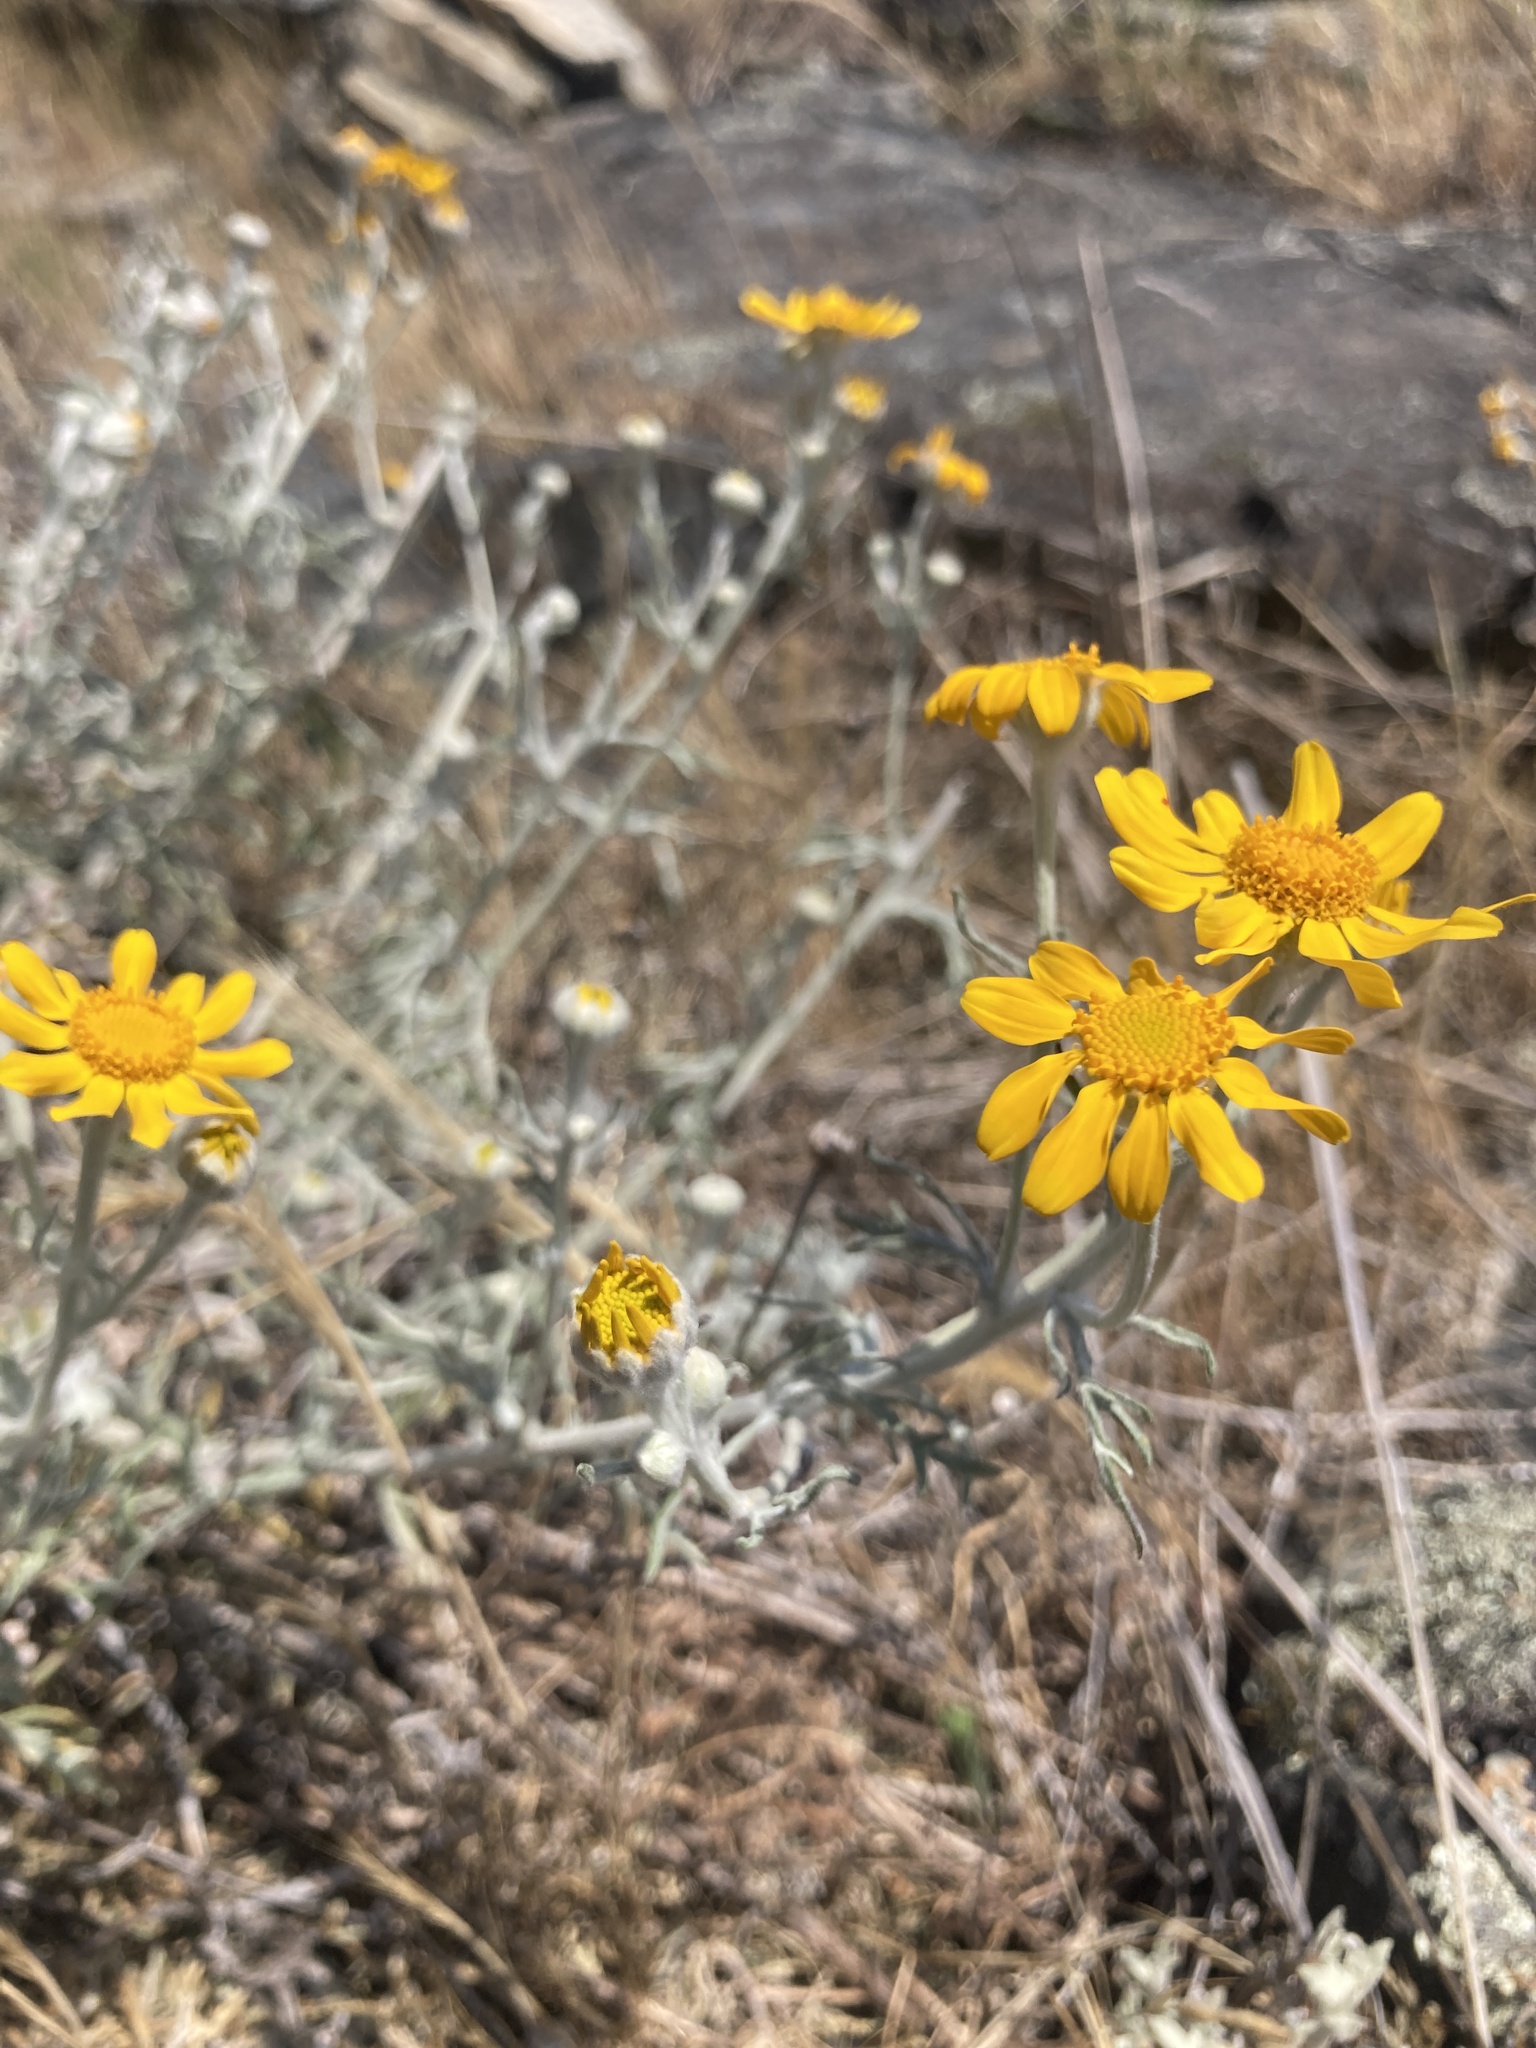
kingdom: Plantae
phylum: Tracheophyta
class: Magnoliopsida
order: Asterales
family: Asteraceae
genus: Eriophyllum
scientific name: Eriophyllum lanatum
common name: Common woolly-sunflower
